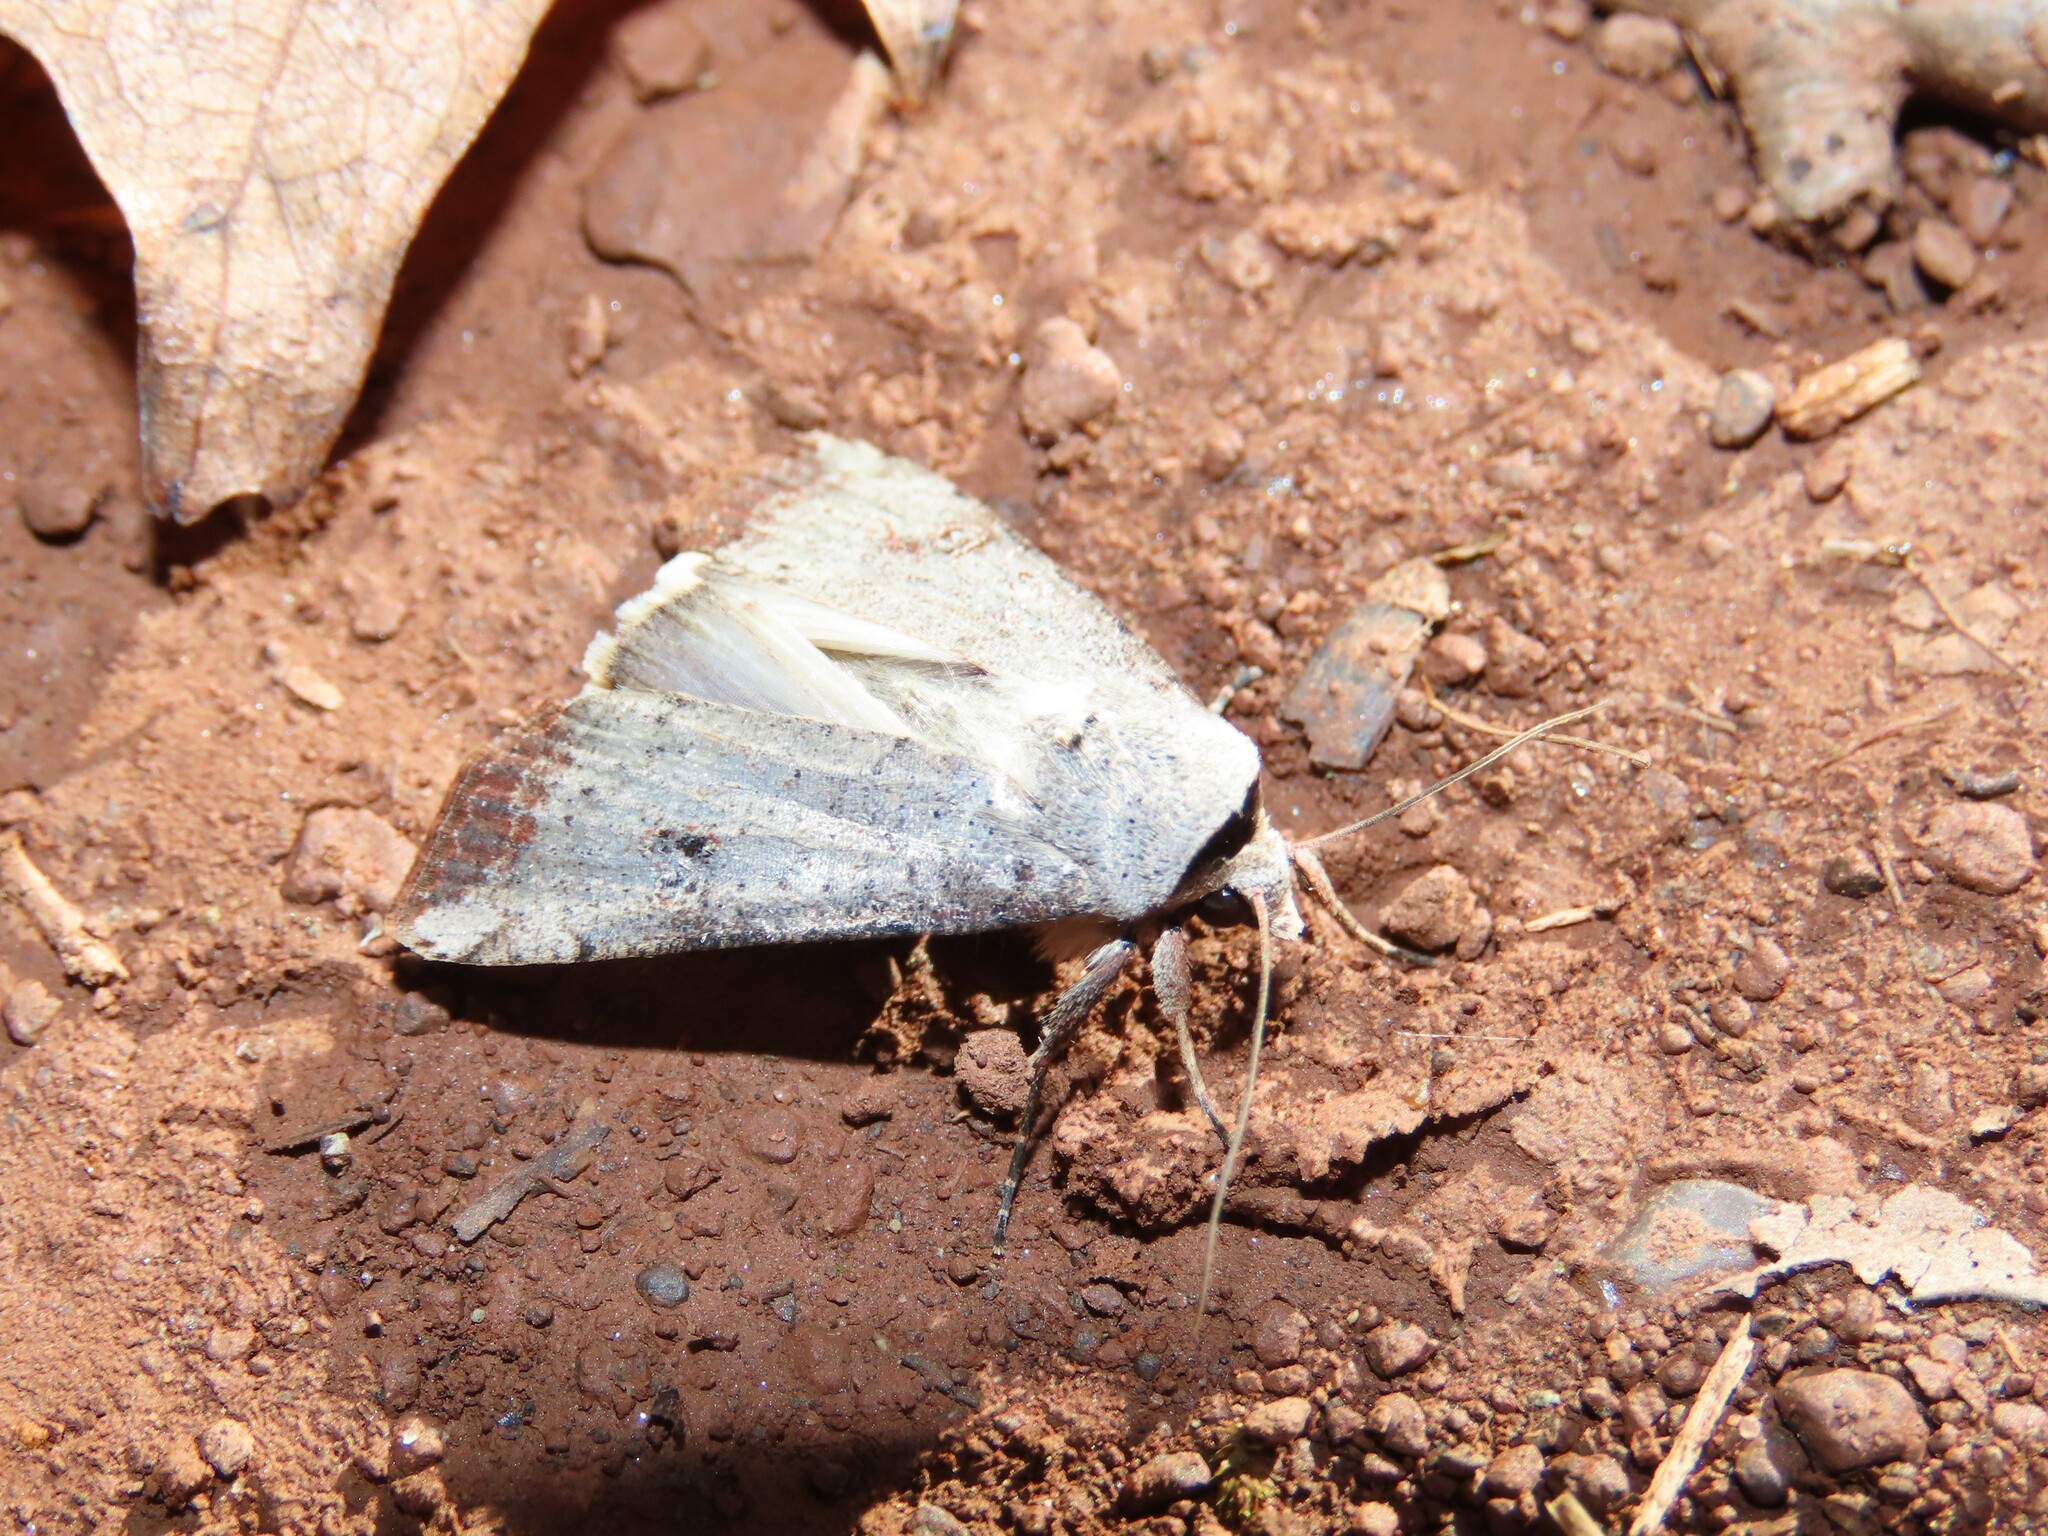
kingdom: Animalia
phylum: Arthropoda
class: Insecta
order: Lepidoptera
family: Noctuidae
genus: Anicla
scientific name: Anicla infecta
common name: Green cutworm
